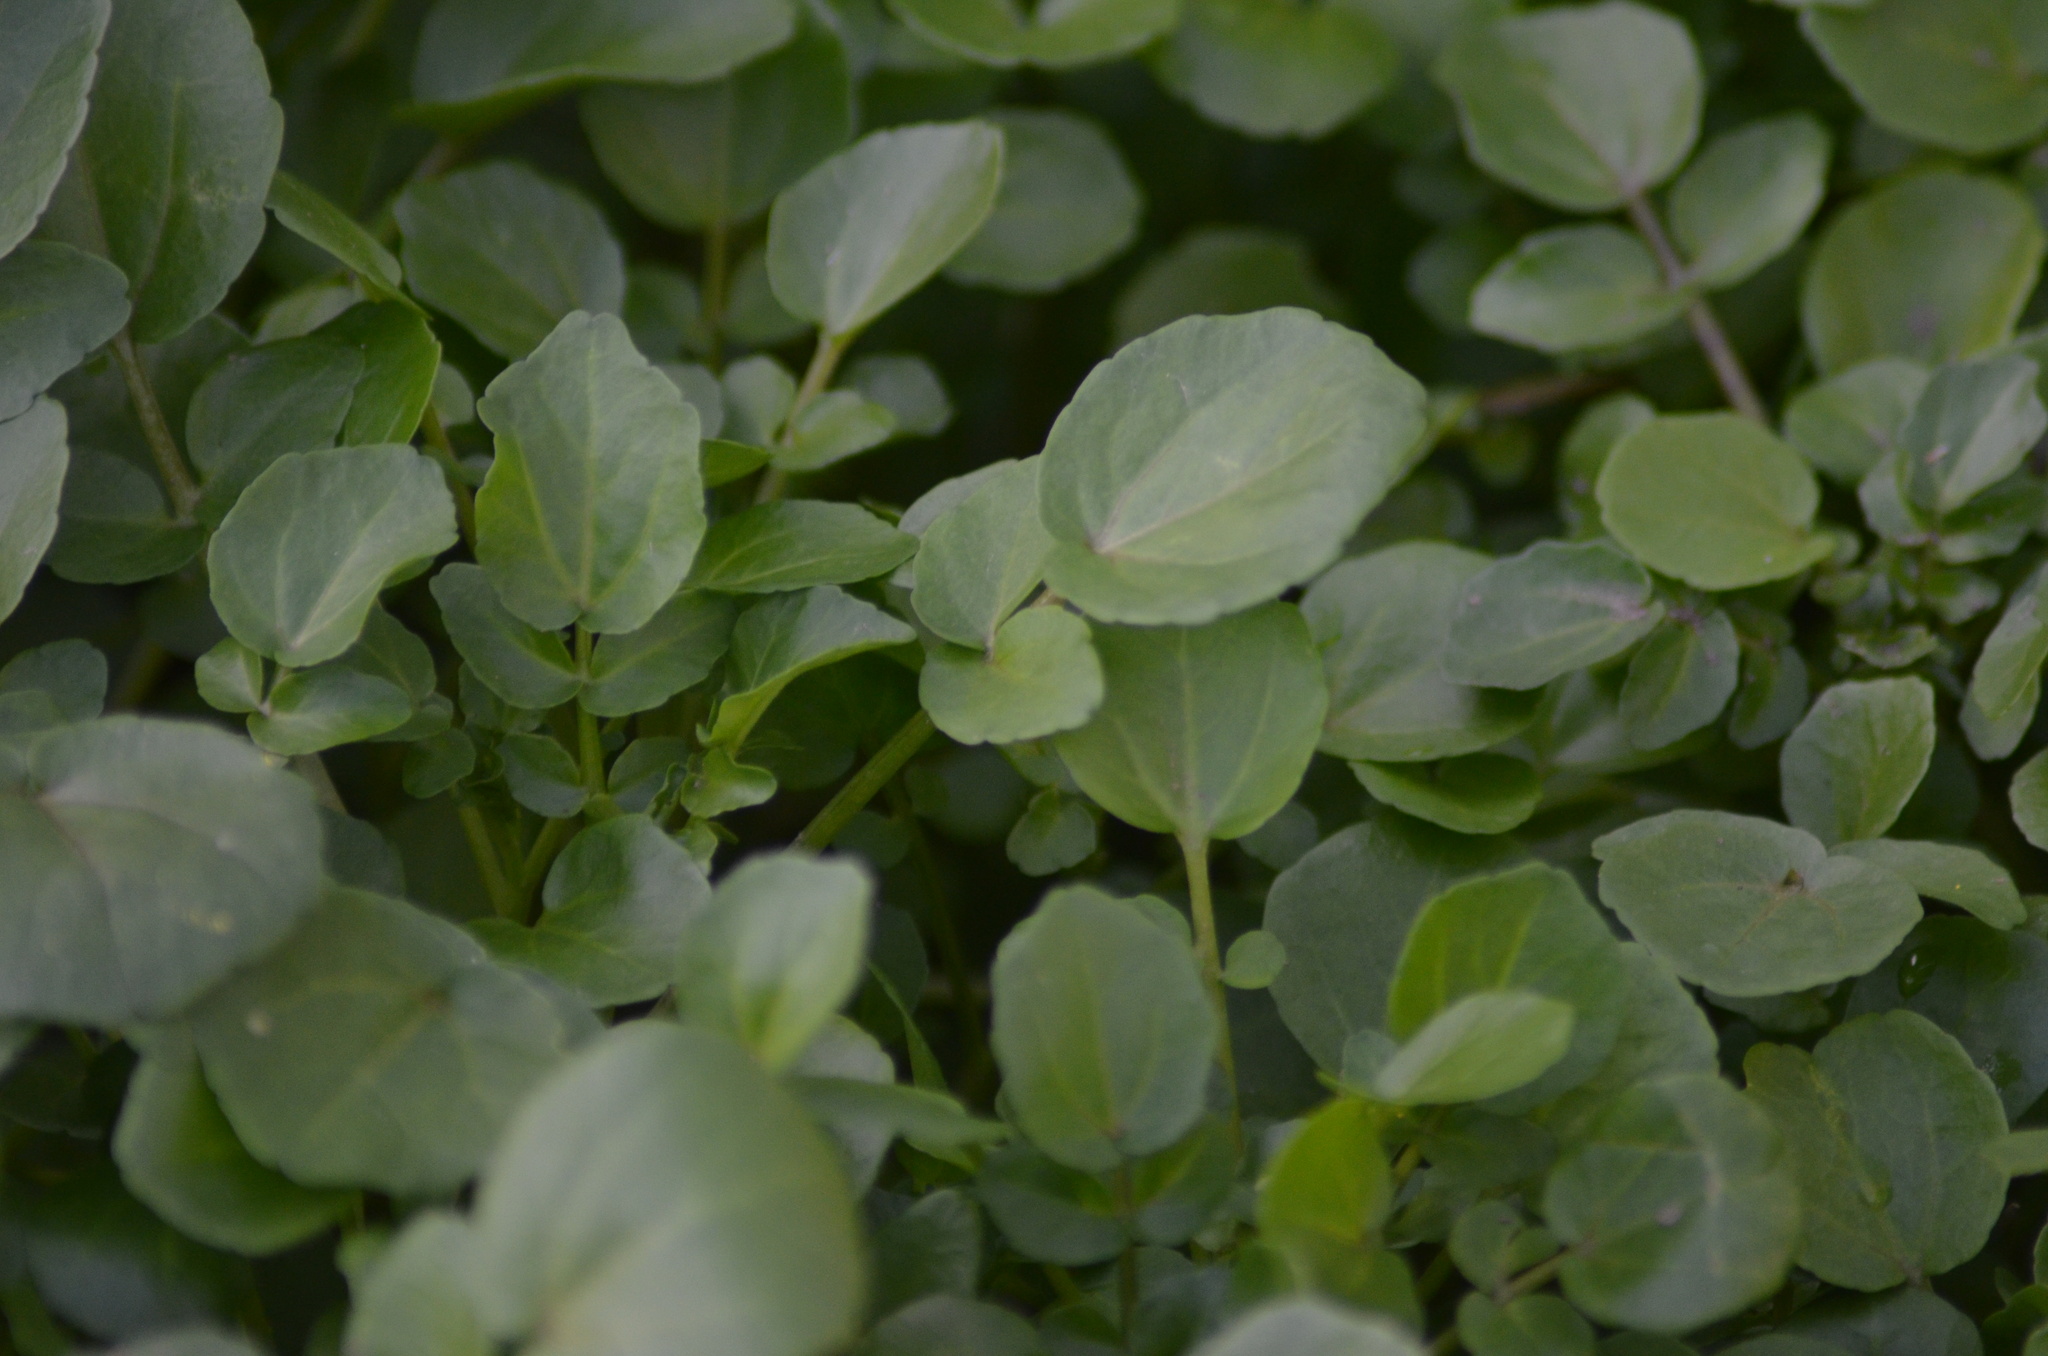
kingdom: Plantae
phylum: Tracheophyta
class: Magnoliopsida
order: Brassicales
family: Brassicaceae
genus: Nasturtium
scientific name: Nasturtium officinale
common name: Watercress
